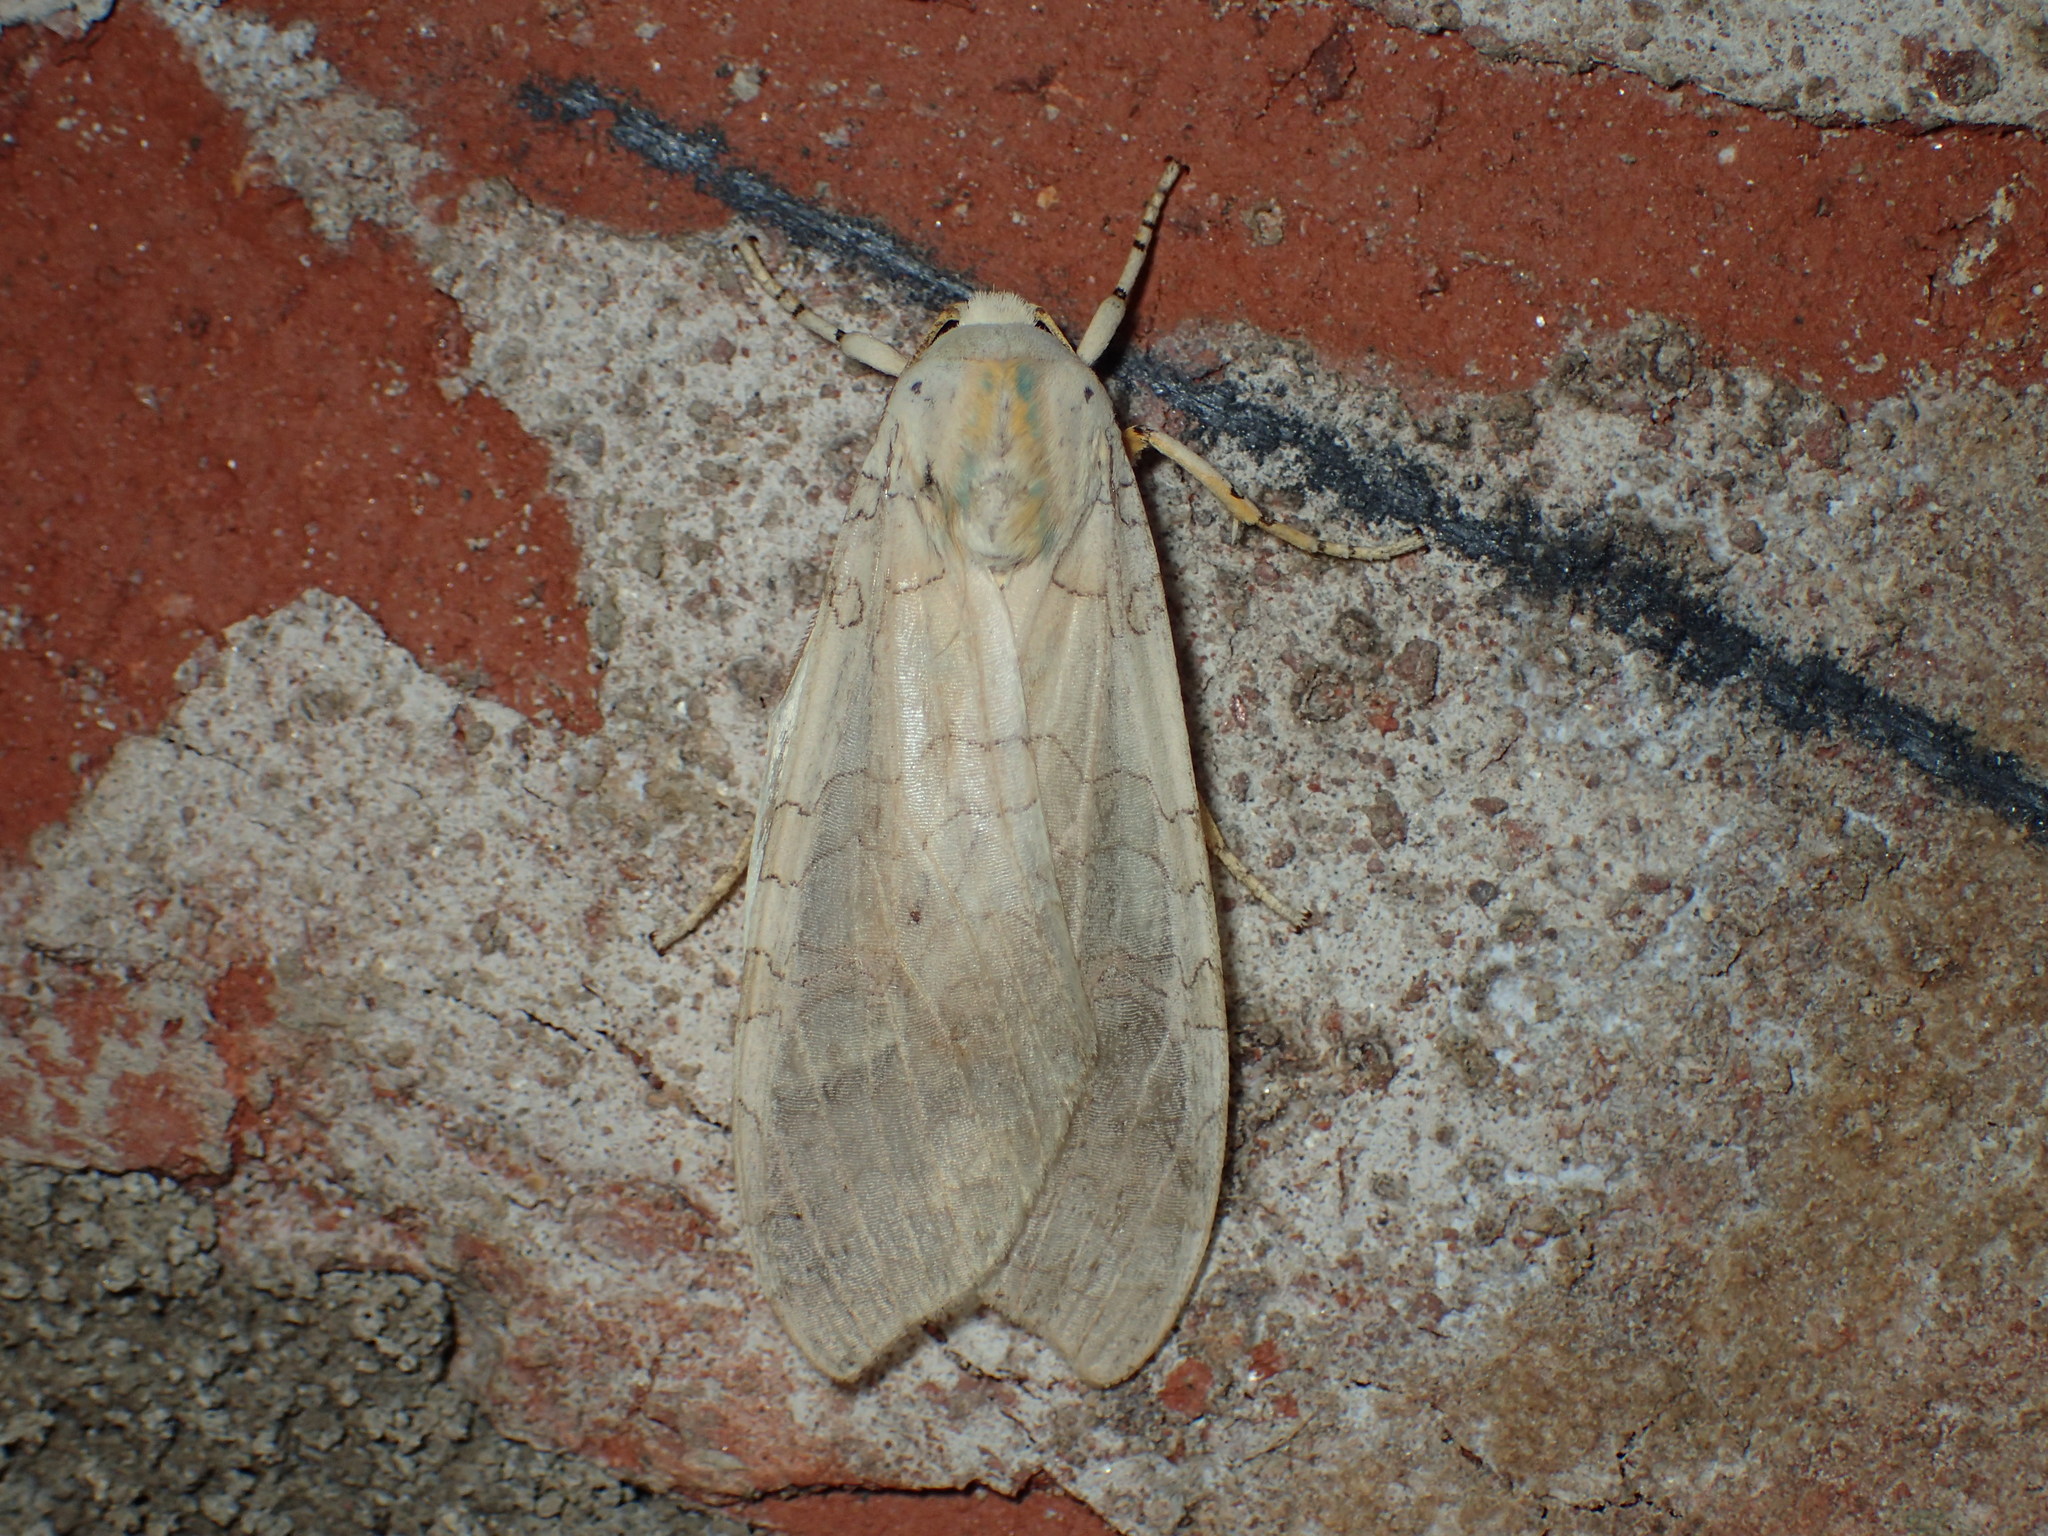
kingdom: Animalia
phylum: Arthropoda
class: Insecta
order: Lepidoptera
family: Erebidae
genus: Halysidota
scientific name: Halysidota
